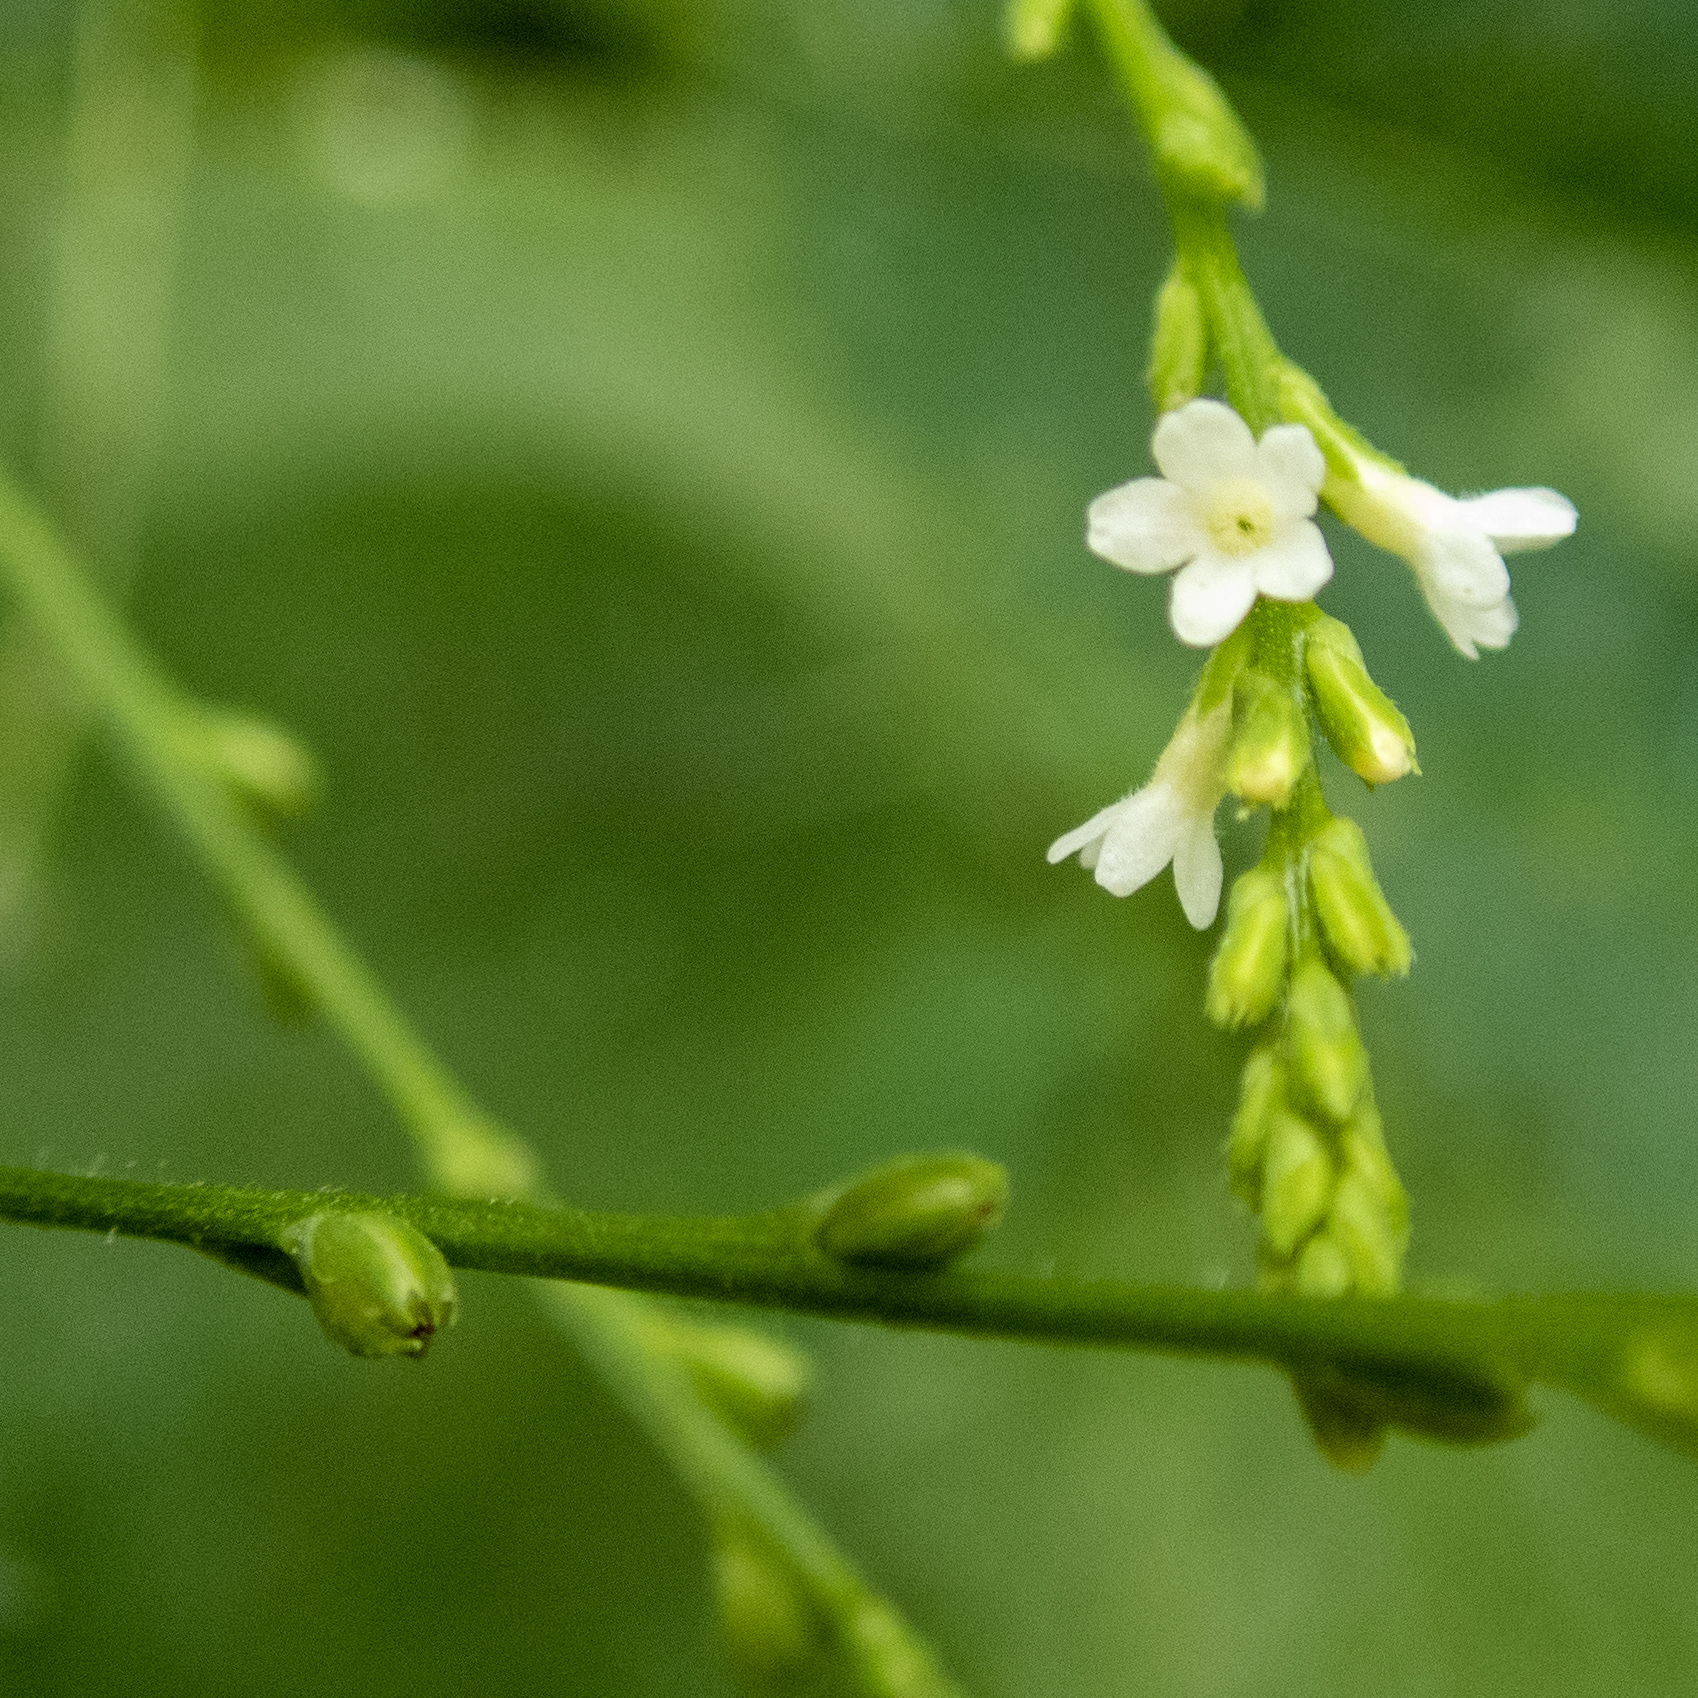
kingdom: Plantae
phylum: Tracheophyta
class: Magnoliopsida
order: Lamiales
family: Verbenaceae
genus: Verbena
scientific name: Verbena urticifolia
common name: Nettle-leaved vervain
